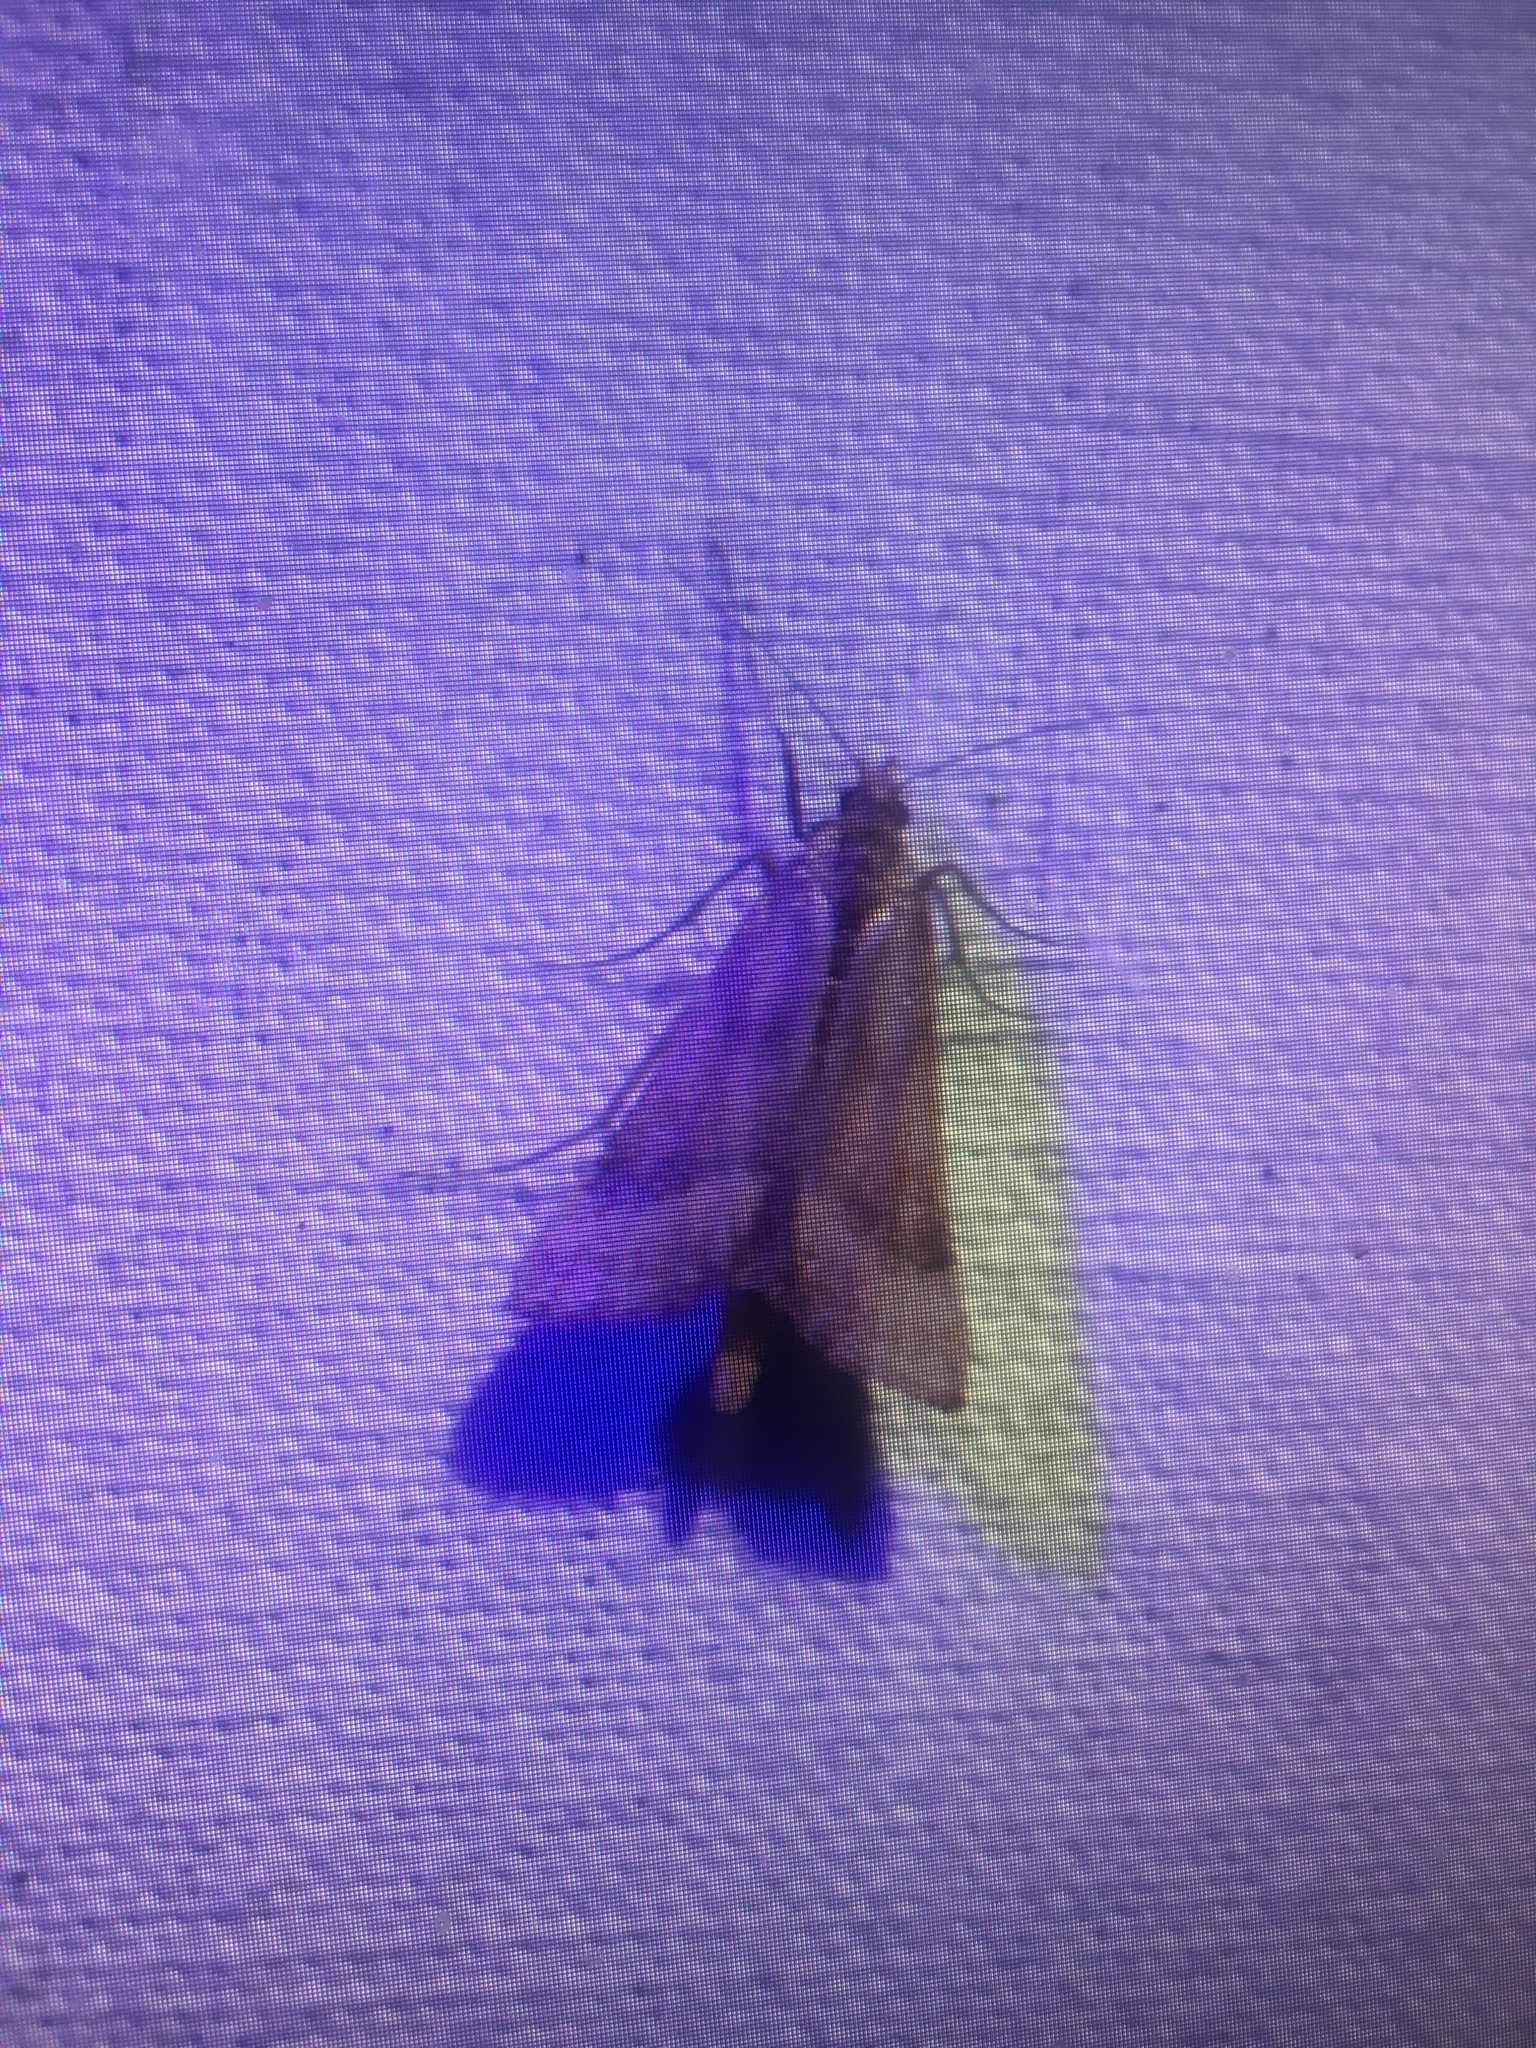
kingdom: Animalia
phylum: Arthropoda
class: Insecta
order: Lepidoptera
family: Pyralidae
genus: Synaphe
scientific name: Synaphe punctalis
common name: Long-legged tabby
